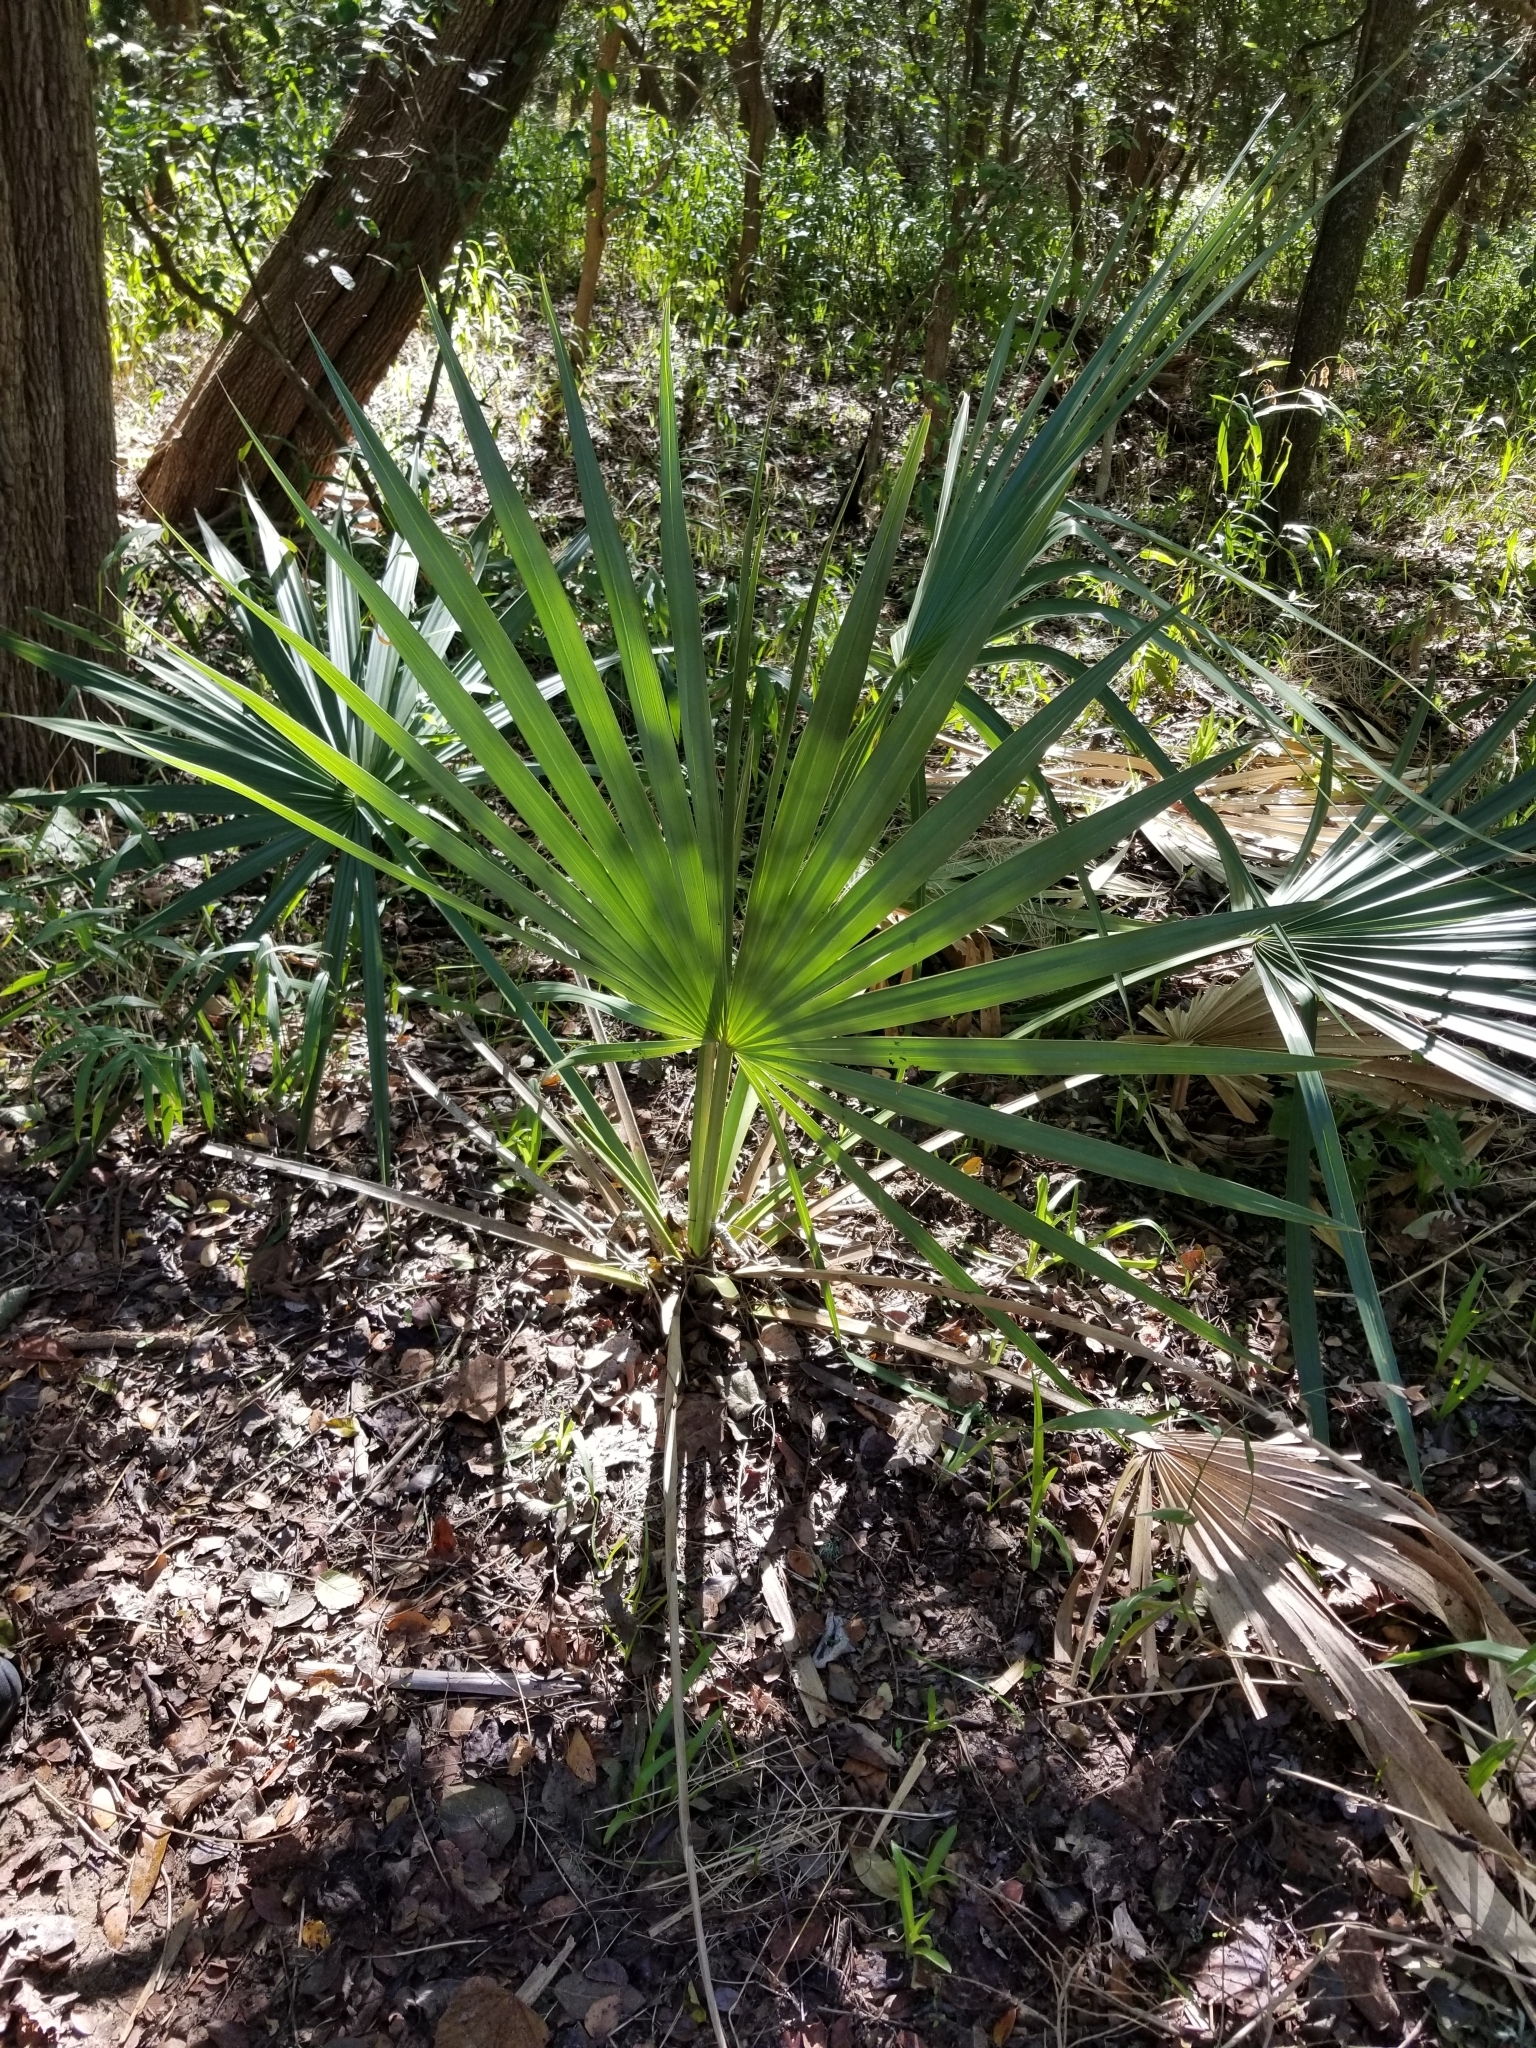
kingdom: Plantae
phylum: Tracheophyta
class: Liliopsida
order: Arecales
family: Arecaceae
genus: Sabal
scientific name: Sabal minor
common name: Dwarf palmetto
